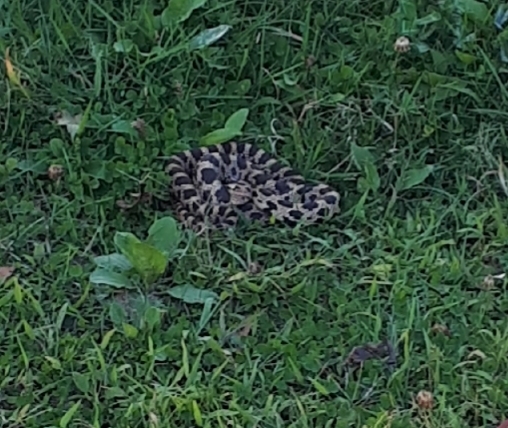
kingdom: Animalia
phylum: Chordata
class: Squamata
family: Colubridae
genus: Pantherophis
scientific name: Pantherophis vulpinus
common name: Eastern fox snake
